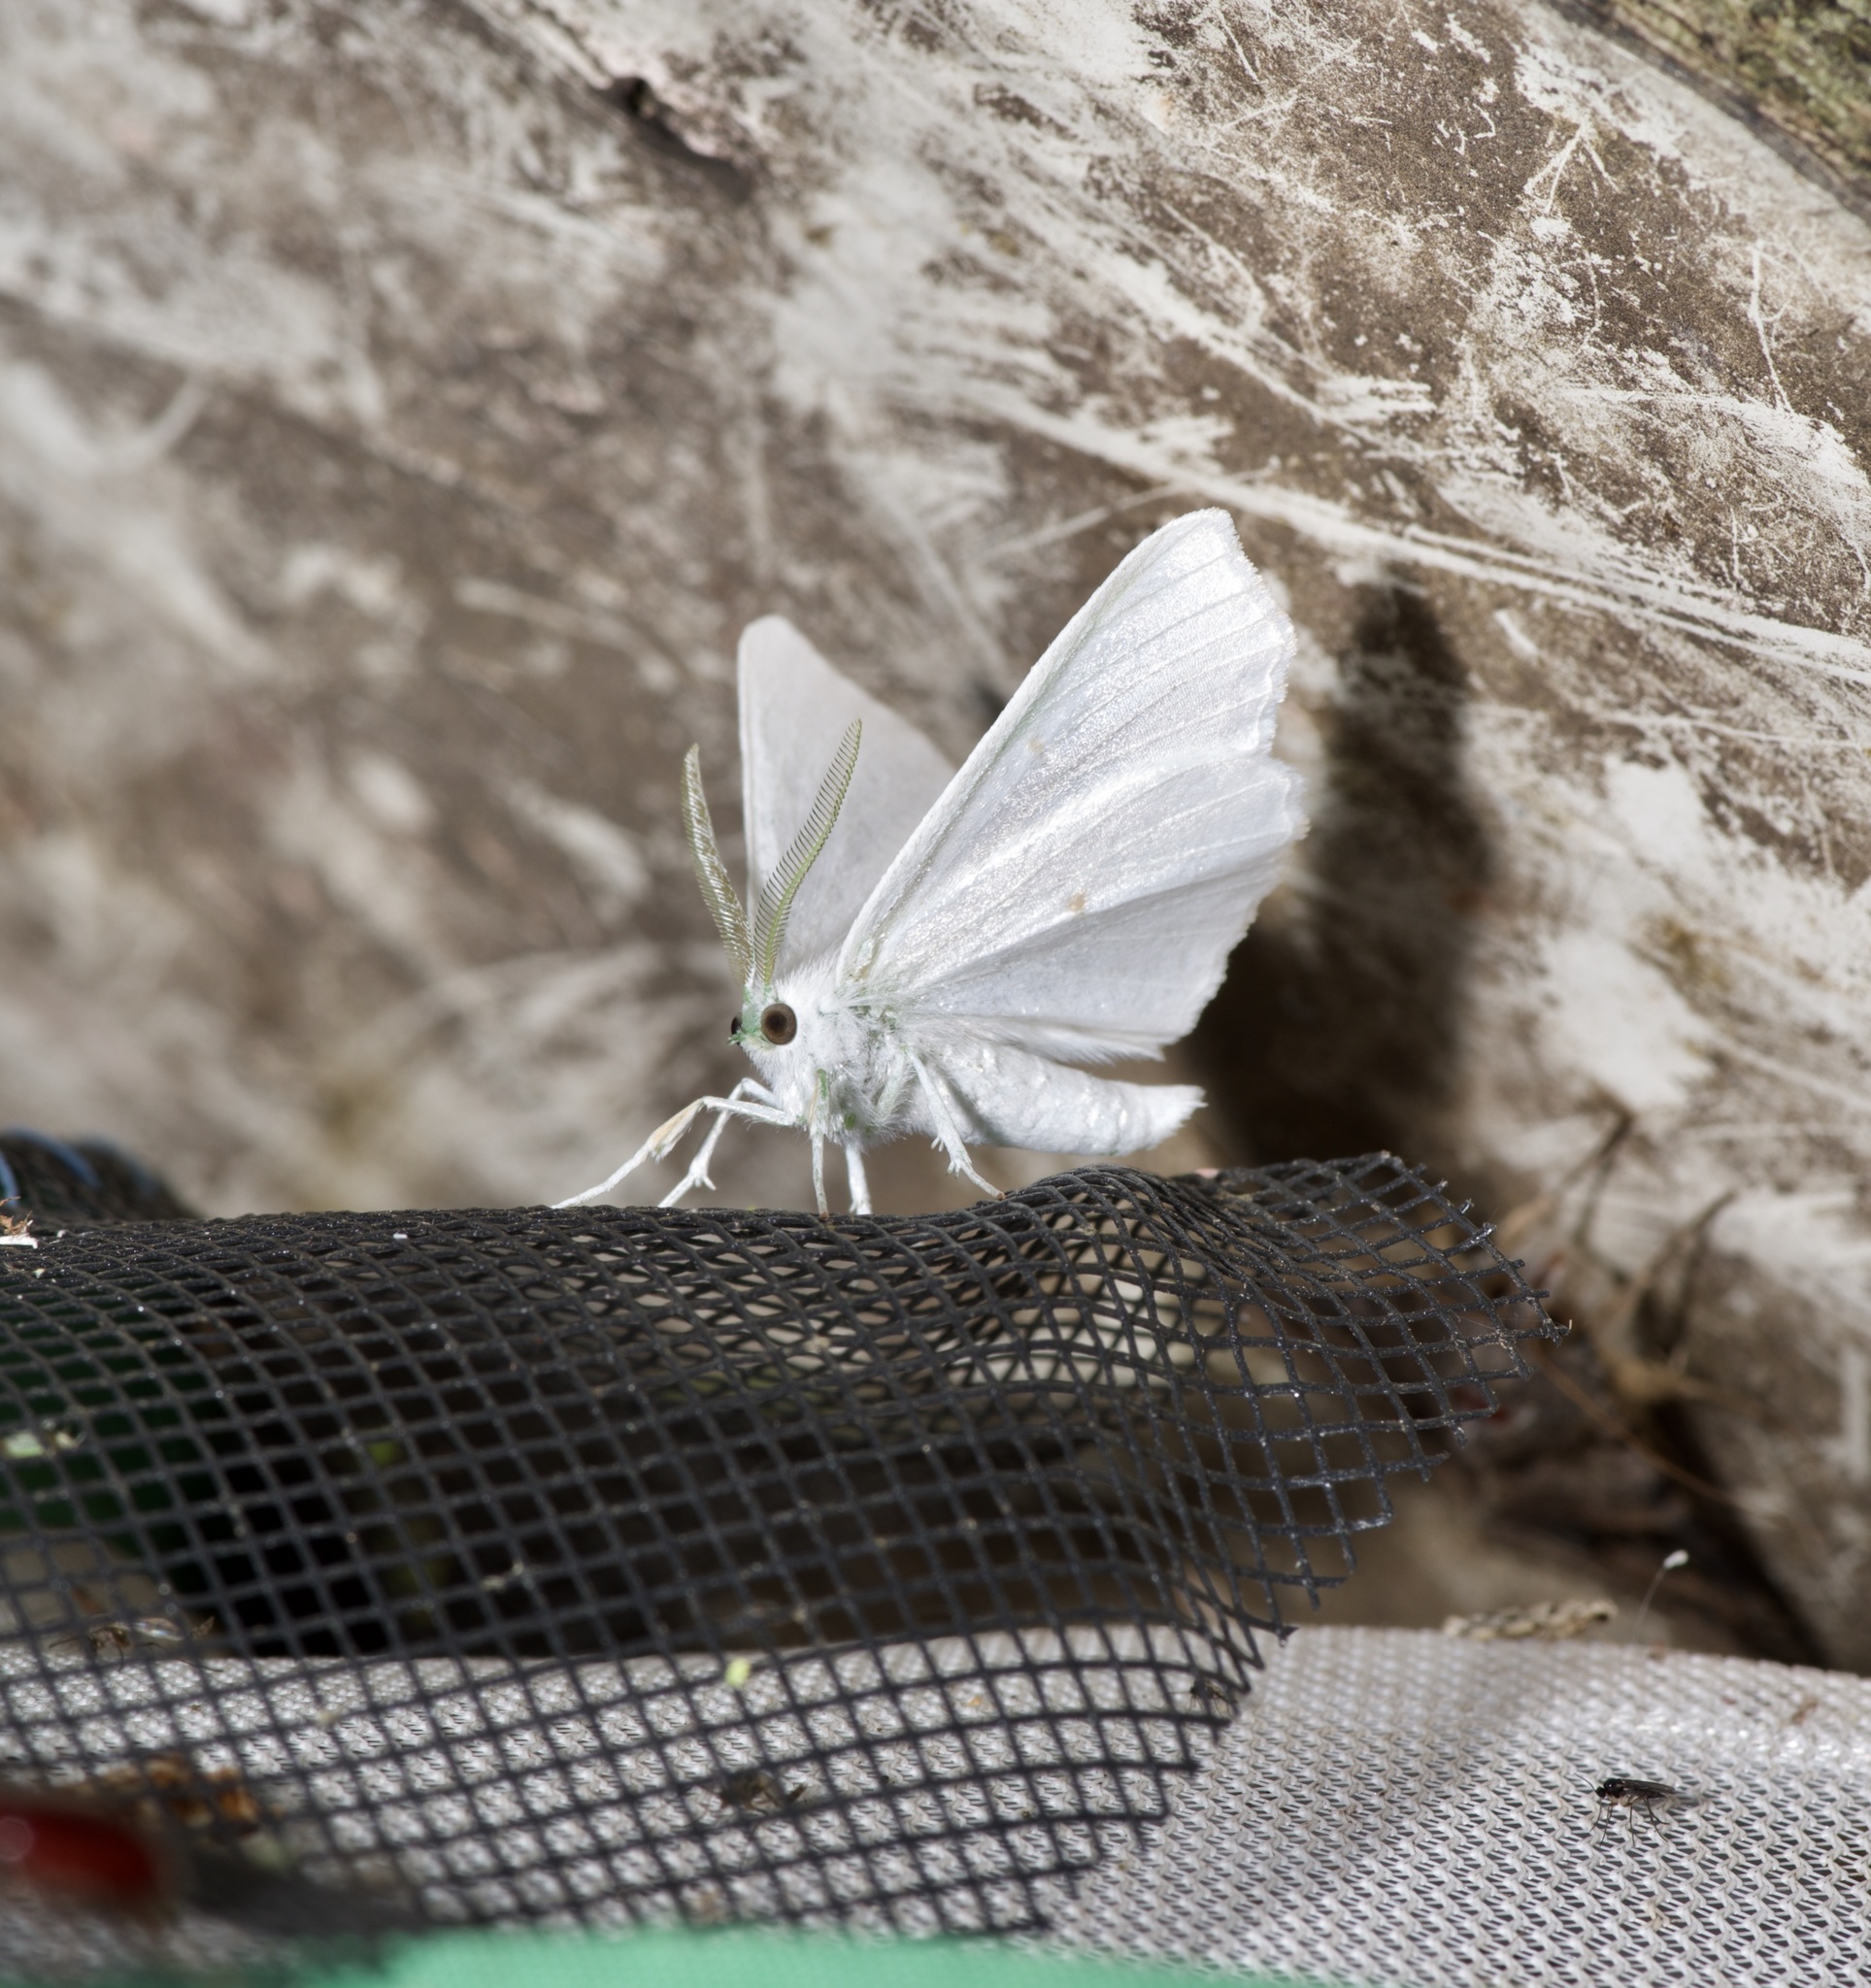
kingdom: Animalia
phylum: Arthropoda
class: Insecta
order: Lepidoptera
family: Geometridae
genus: Ennomos
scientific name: Ennomos subsignaria
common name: Elm spanworm
